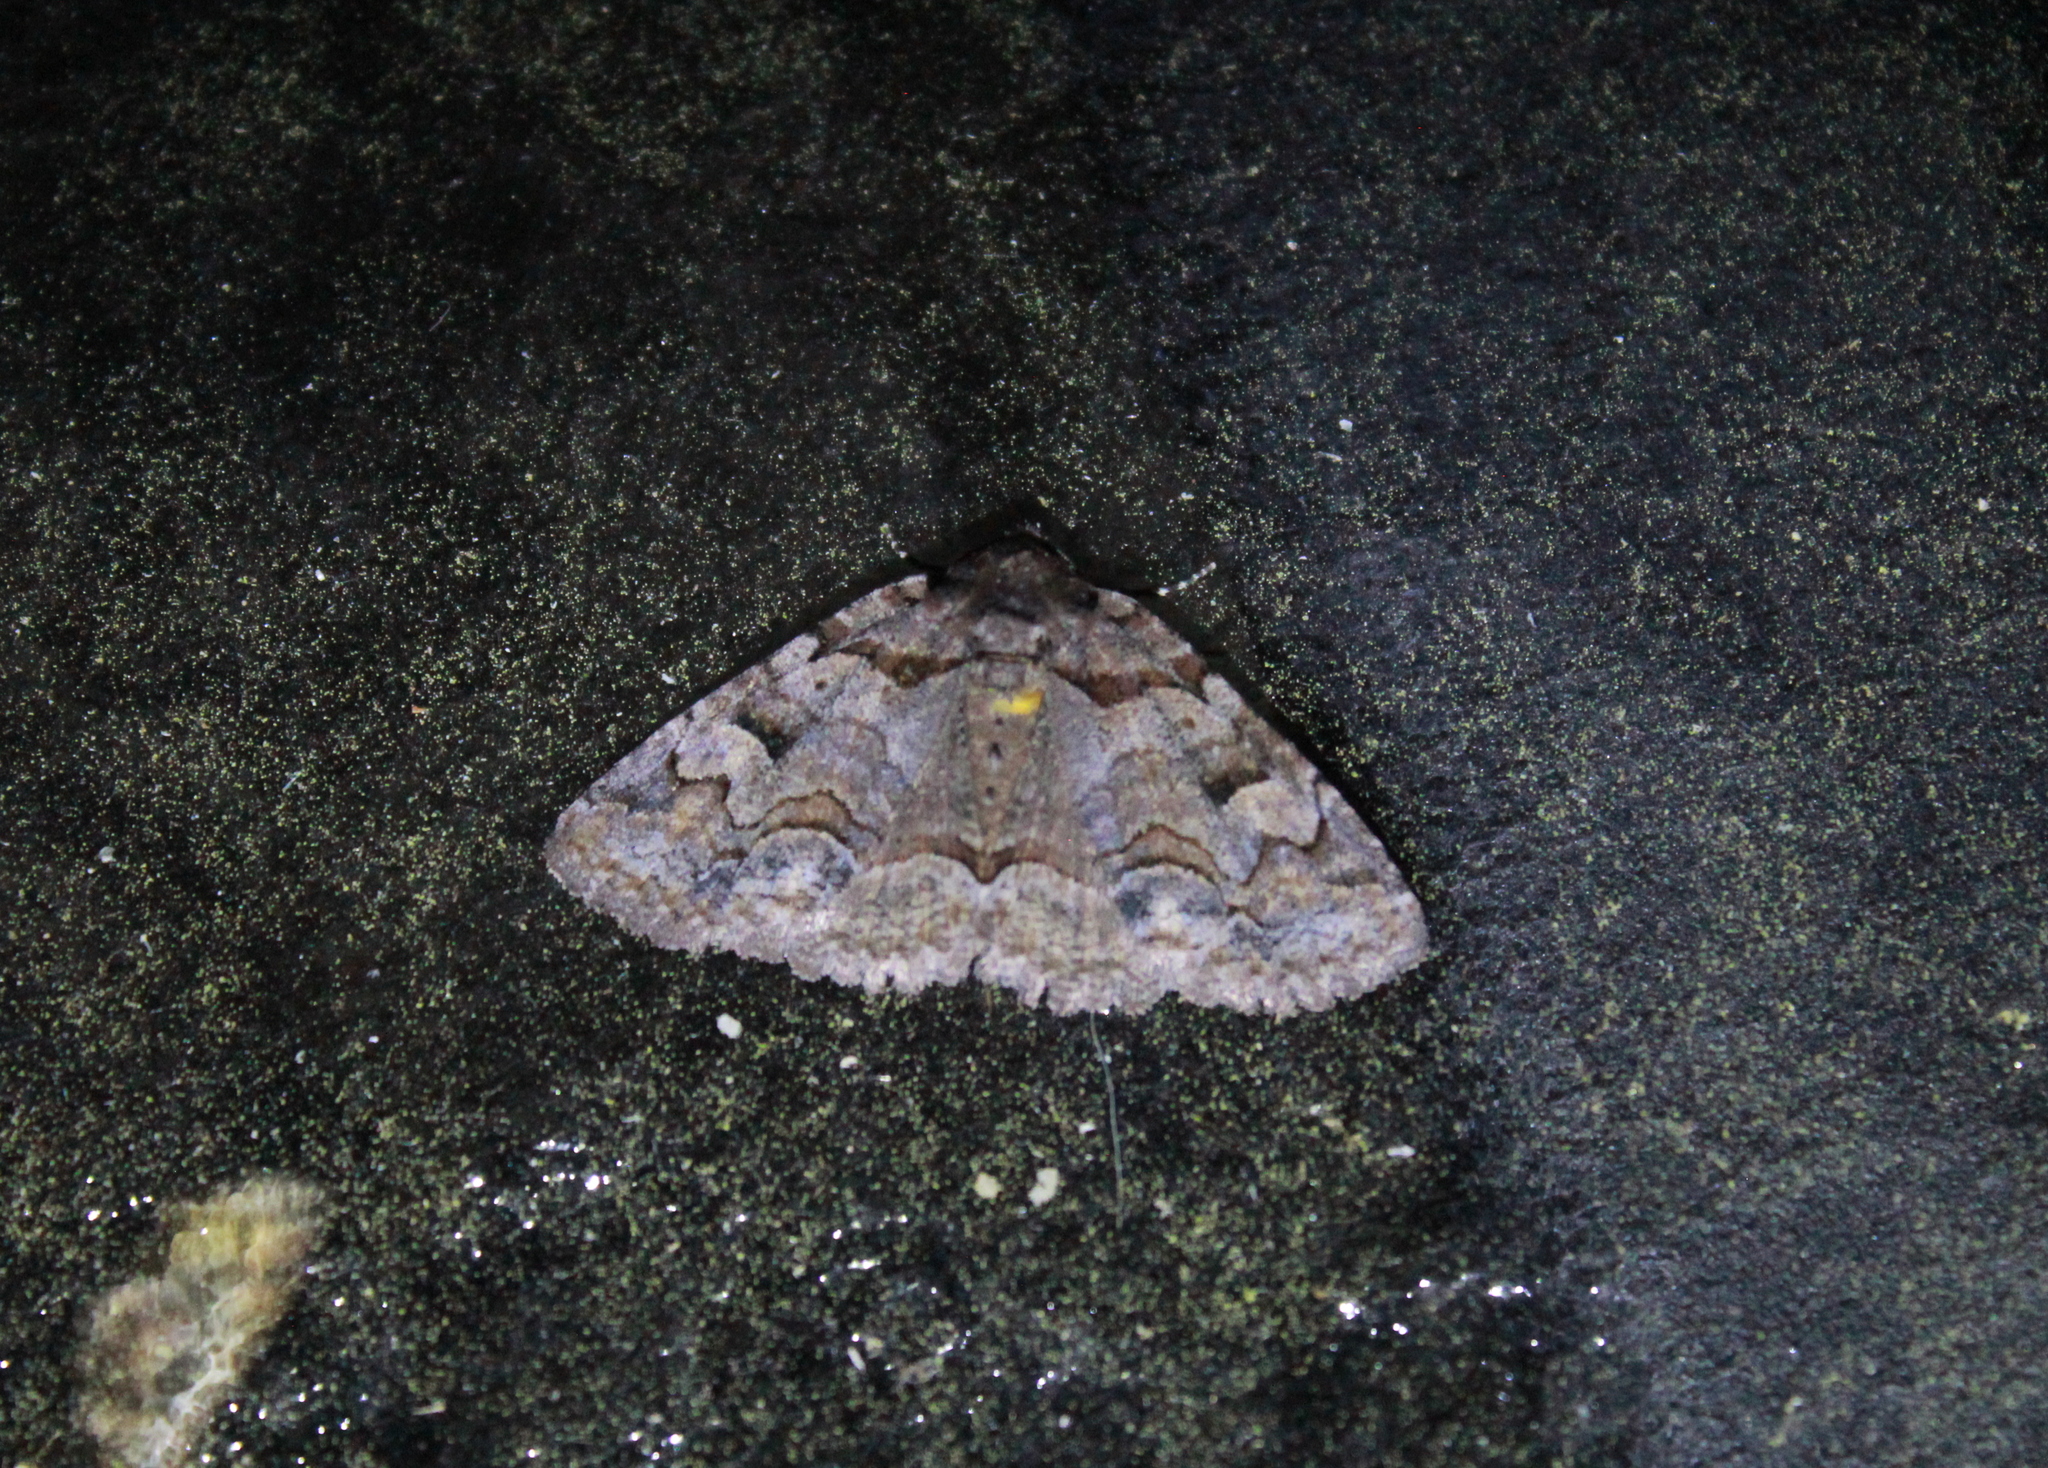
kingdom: Animalia
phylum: Arthropoda
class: Insecta
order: Lepidoptera
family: Erebidae
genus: Zale
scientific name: Zale helata
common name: Brown-spotted zale moth
